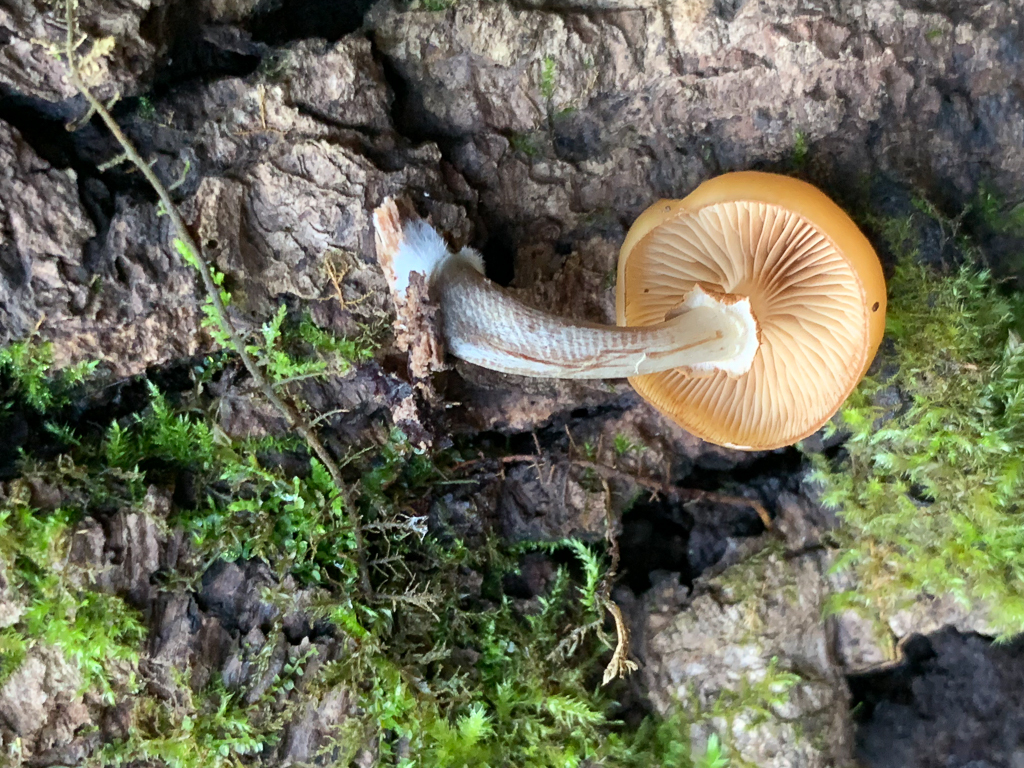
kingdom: Fungi
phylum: Basidiomycota
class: Agaricomycetes
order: Agaricales
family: Hymenogastraceae
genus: Galerina
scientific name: Galerina marginata
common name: Funeral bell
